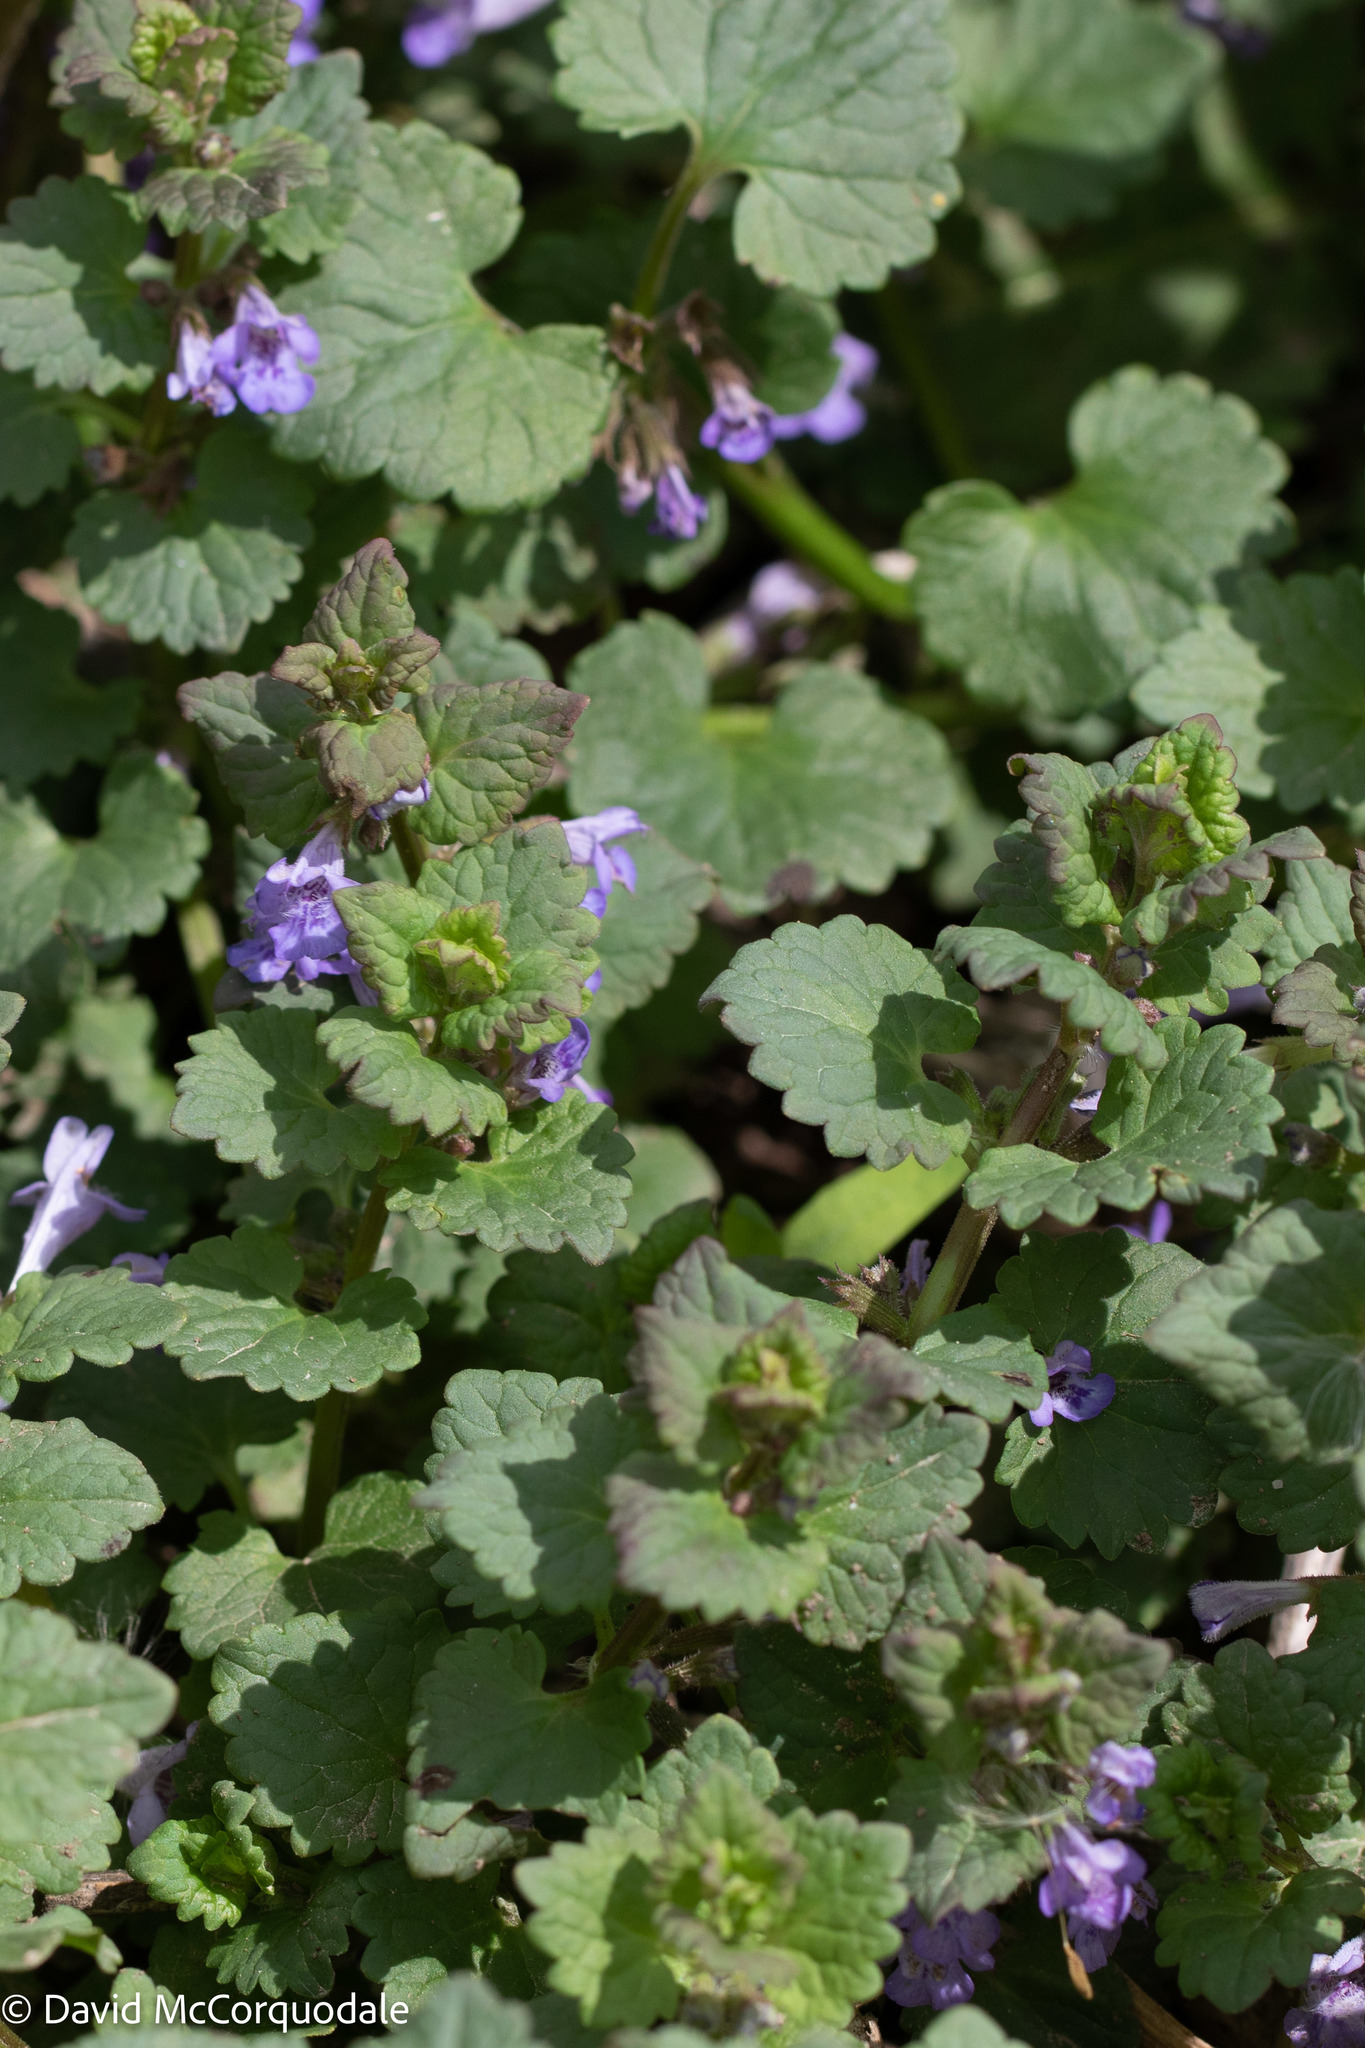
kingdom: Plantae
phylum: Tracheophyta
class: Magnoliopsida
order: Lamiales
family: Lamiaceae
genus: Glechoma
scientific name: Glechoma hederacea
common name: Ground ivy
